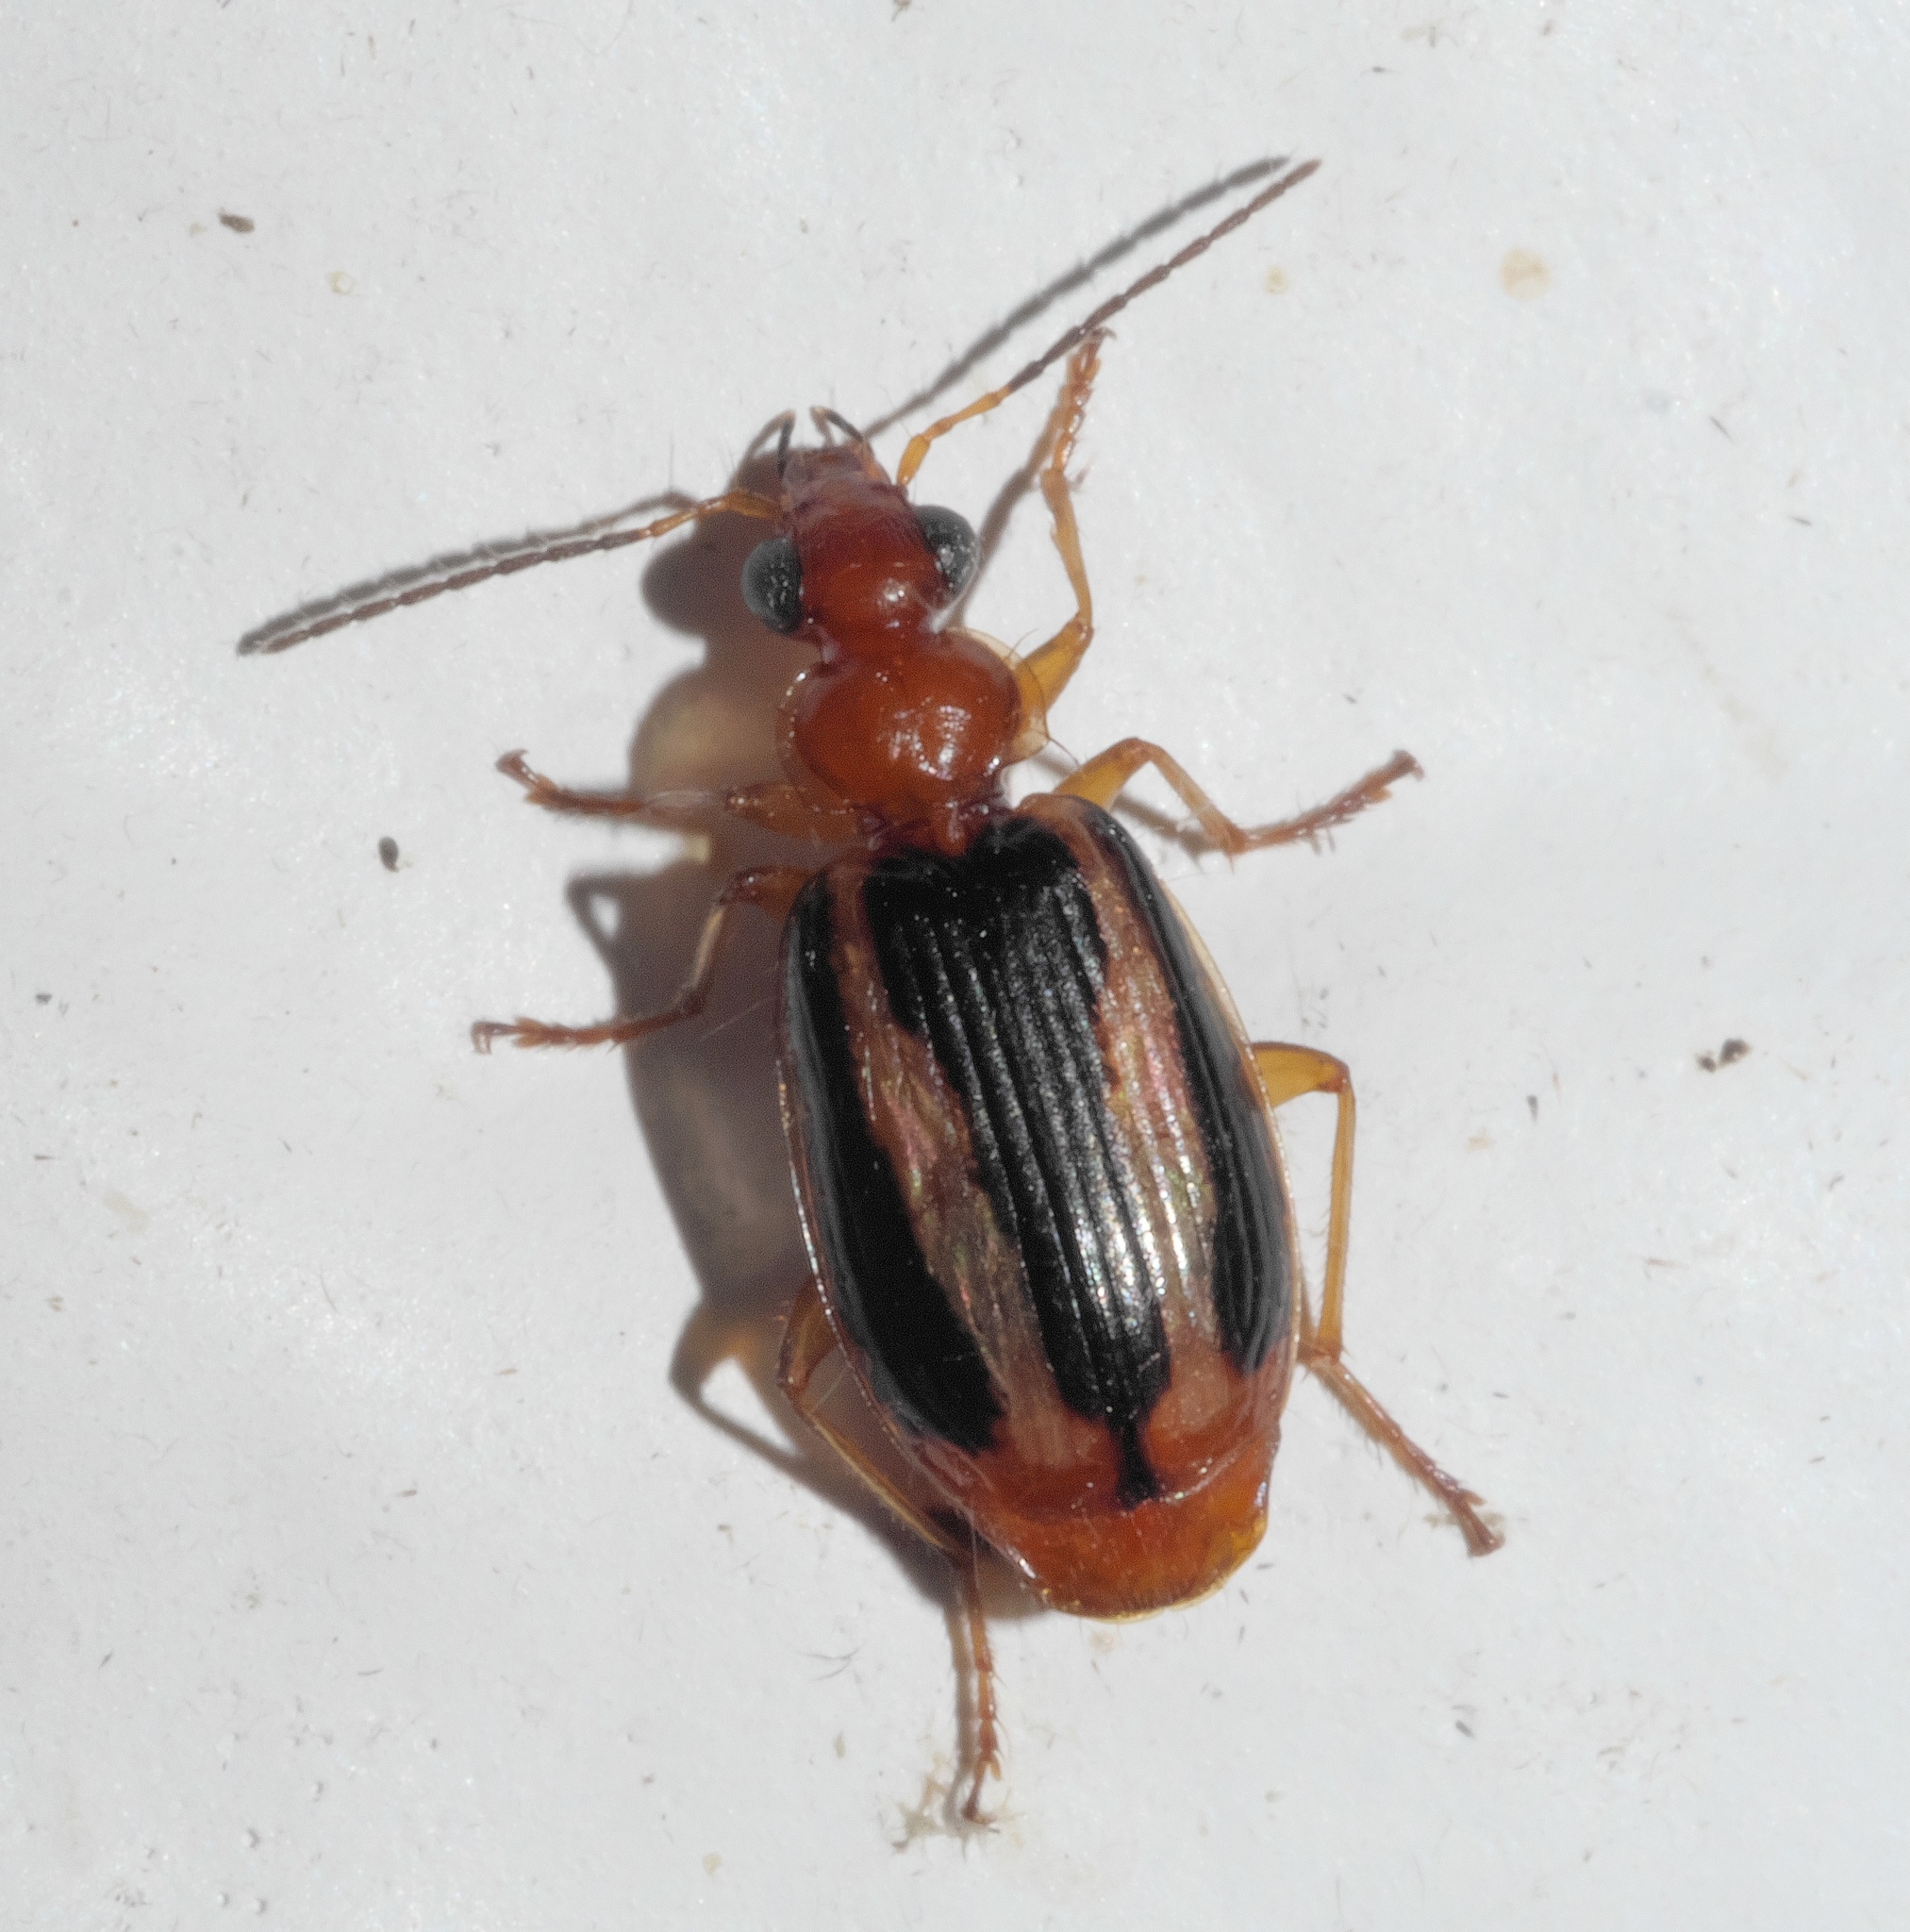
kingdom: Animalia
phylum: Arthropoda
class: Insecta
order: Coleoptera
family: Carabidae
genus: Lebia
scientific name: Lebia solea
